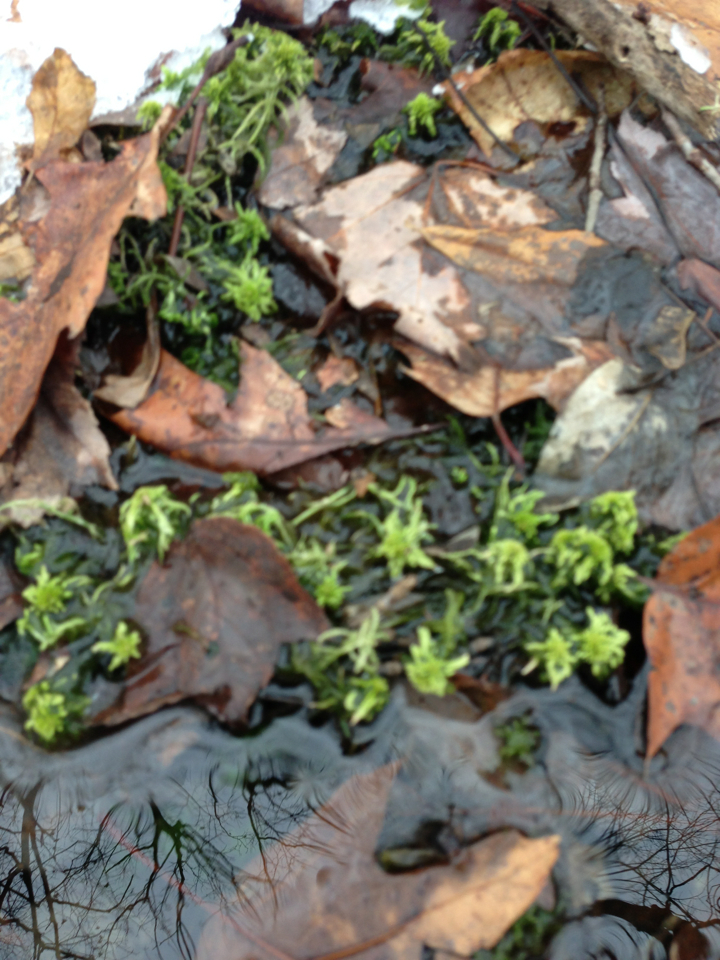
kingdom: Plantae
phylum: Bryophyta
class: Sphagnopsida
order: Sphagnales
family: Sphagnaceae
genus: Sphagnum
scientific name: Sphagnum
